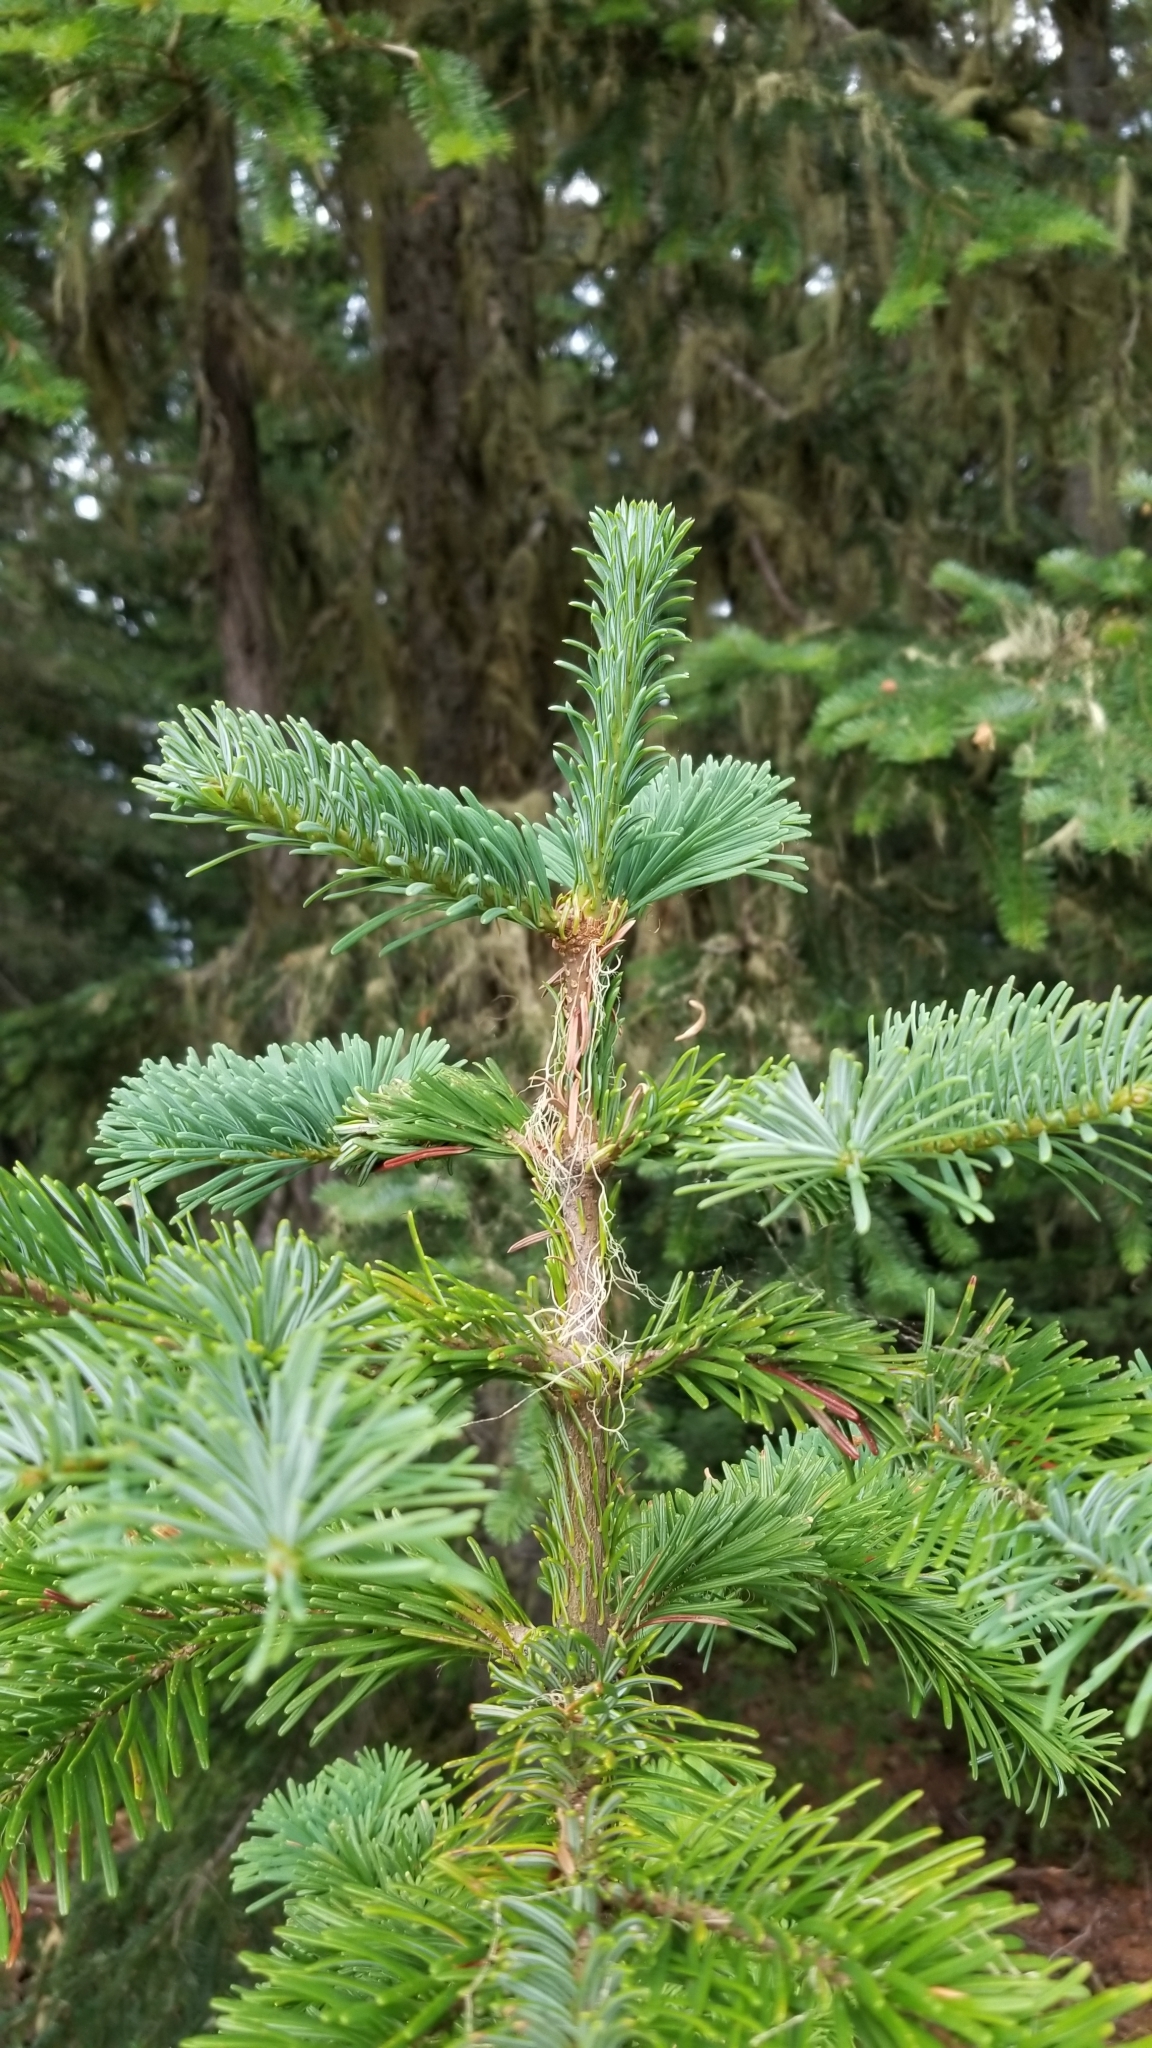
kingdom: Plantae
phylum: Tracheophyta
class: Pinopsida
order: Pinales
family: Pinaceae
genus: Abies
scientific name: Abies amabilis
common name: Pacific silver fir
